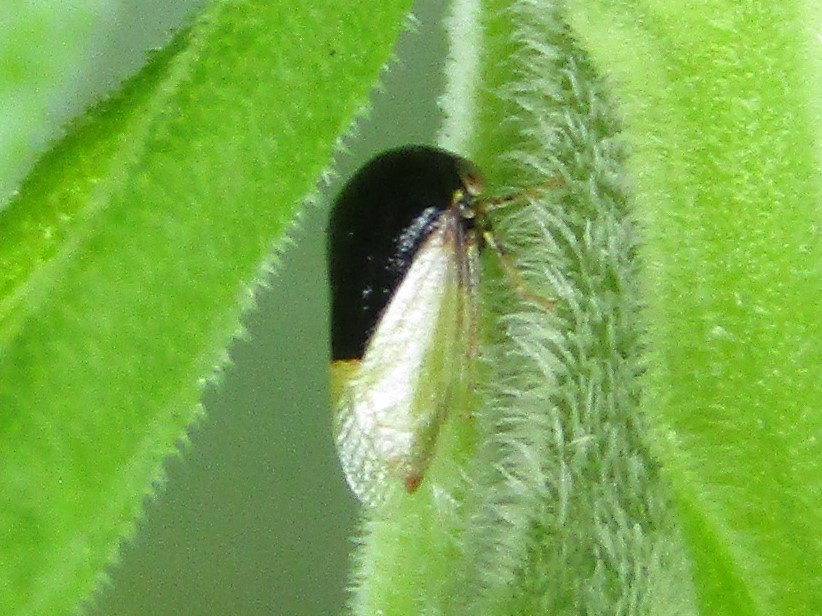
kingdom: Animalia
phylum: Arthropoda
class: Insecta
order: Hemiptera
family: Membracidae
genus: Micrutalis
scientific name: Micrutalis calva
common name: Honeylocust treehopper
